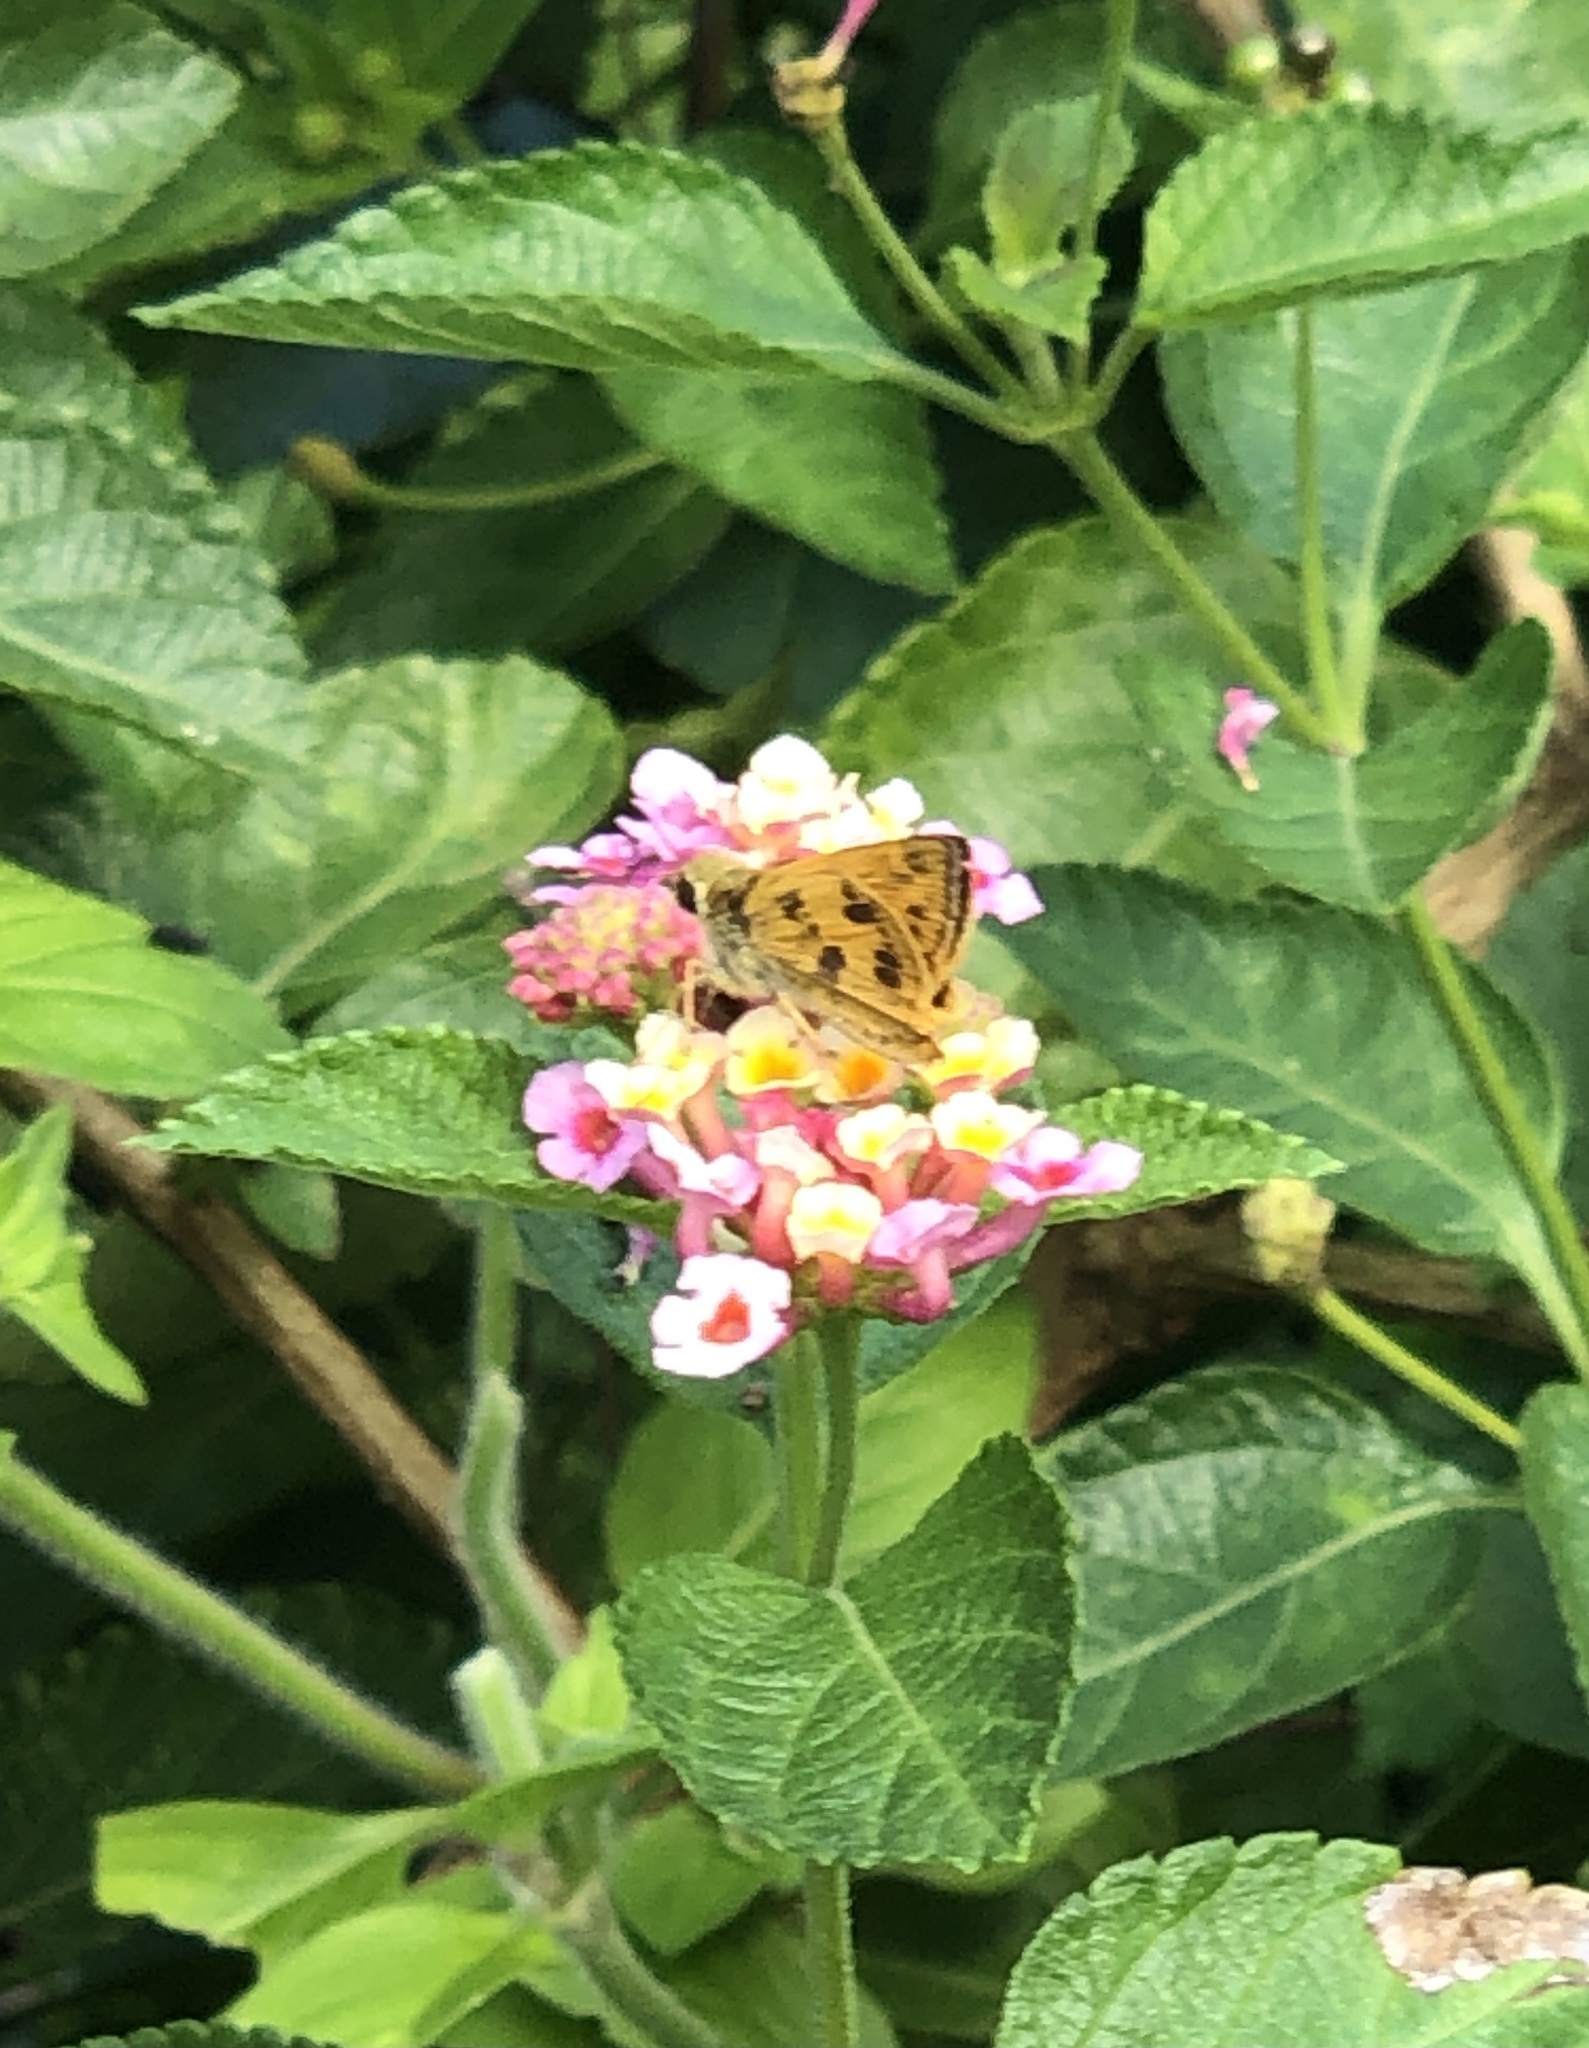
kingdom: Animalia
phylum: Arthropoda
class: Insecta
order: Lepidoptera
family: Hesperiidae
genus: Polites
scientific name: Polites vibex
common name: Whirlabout
